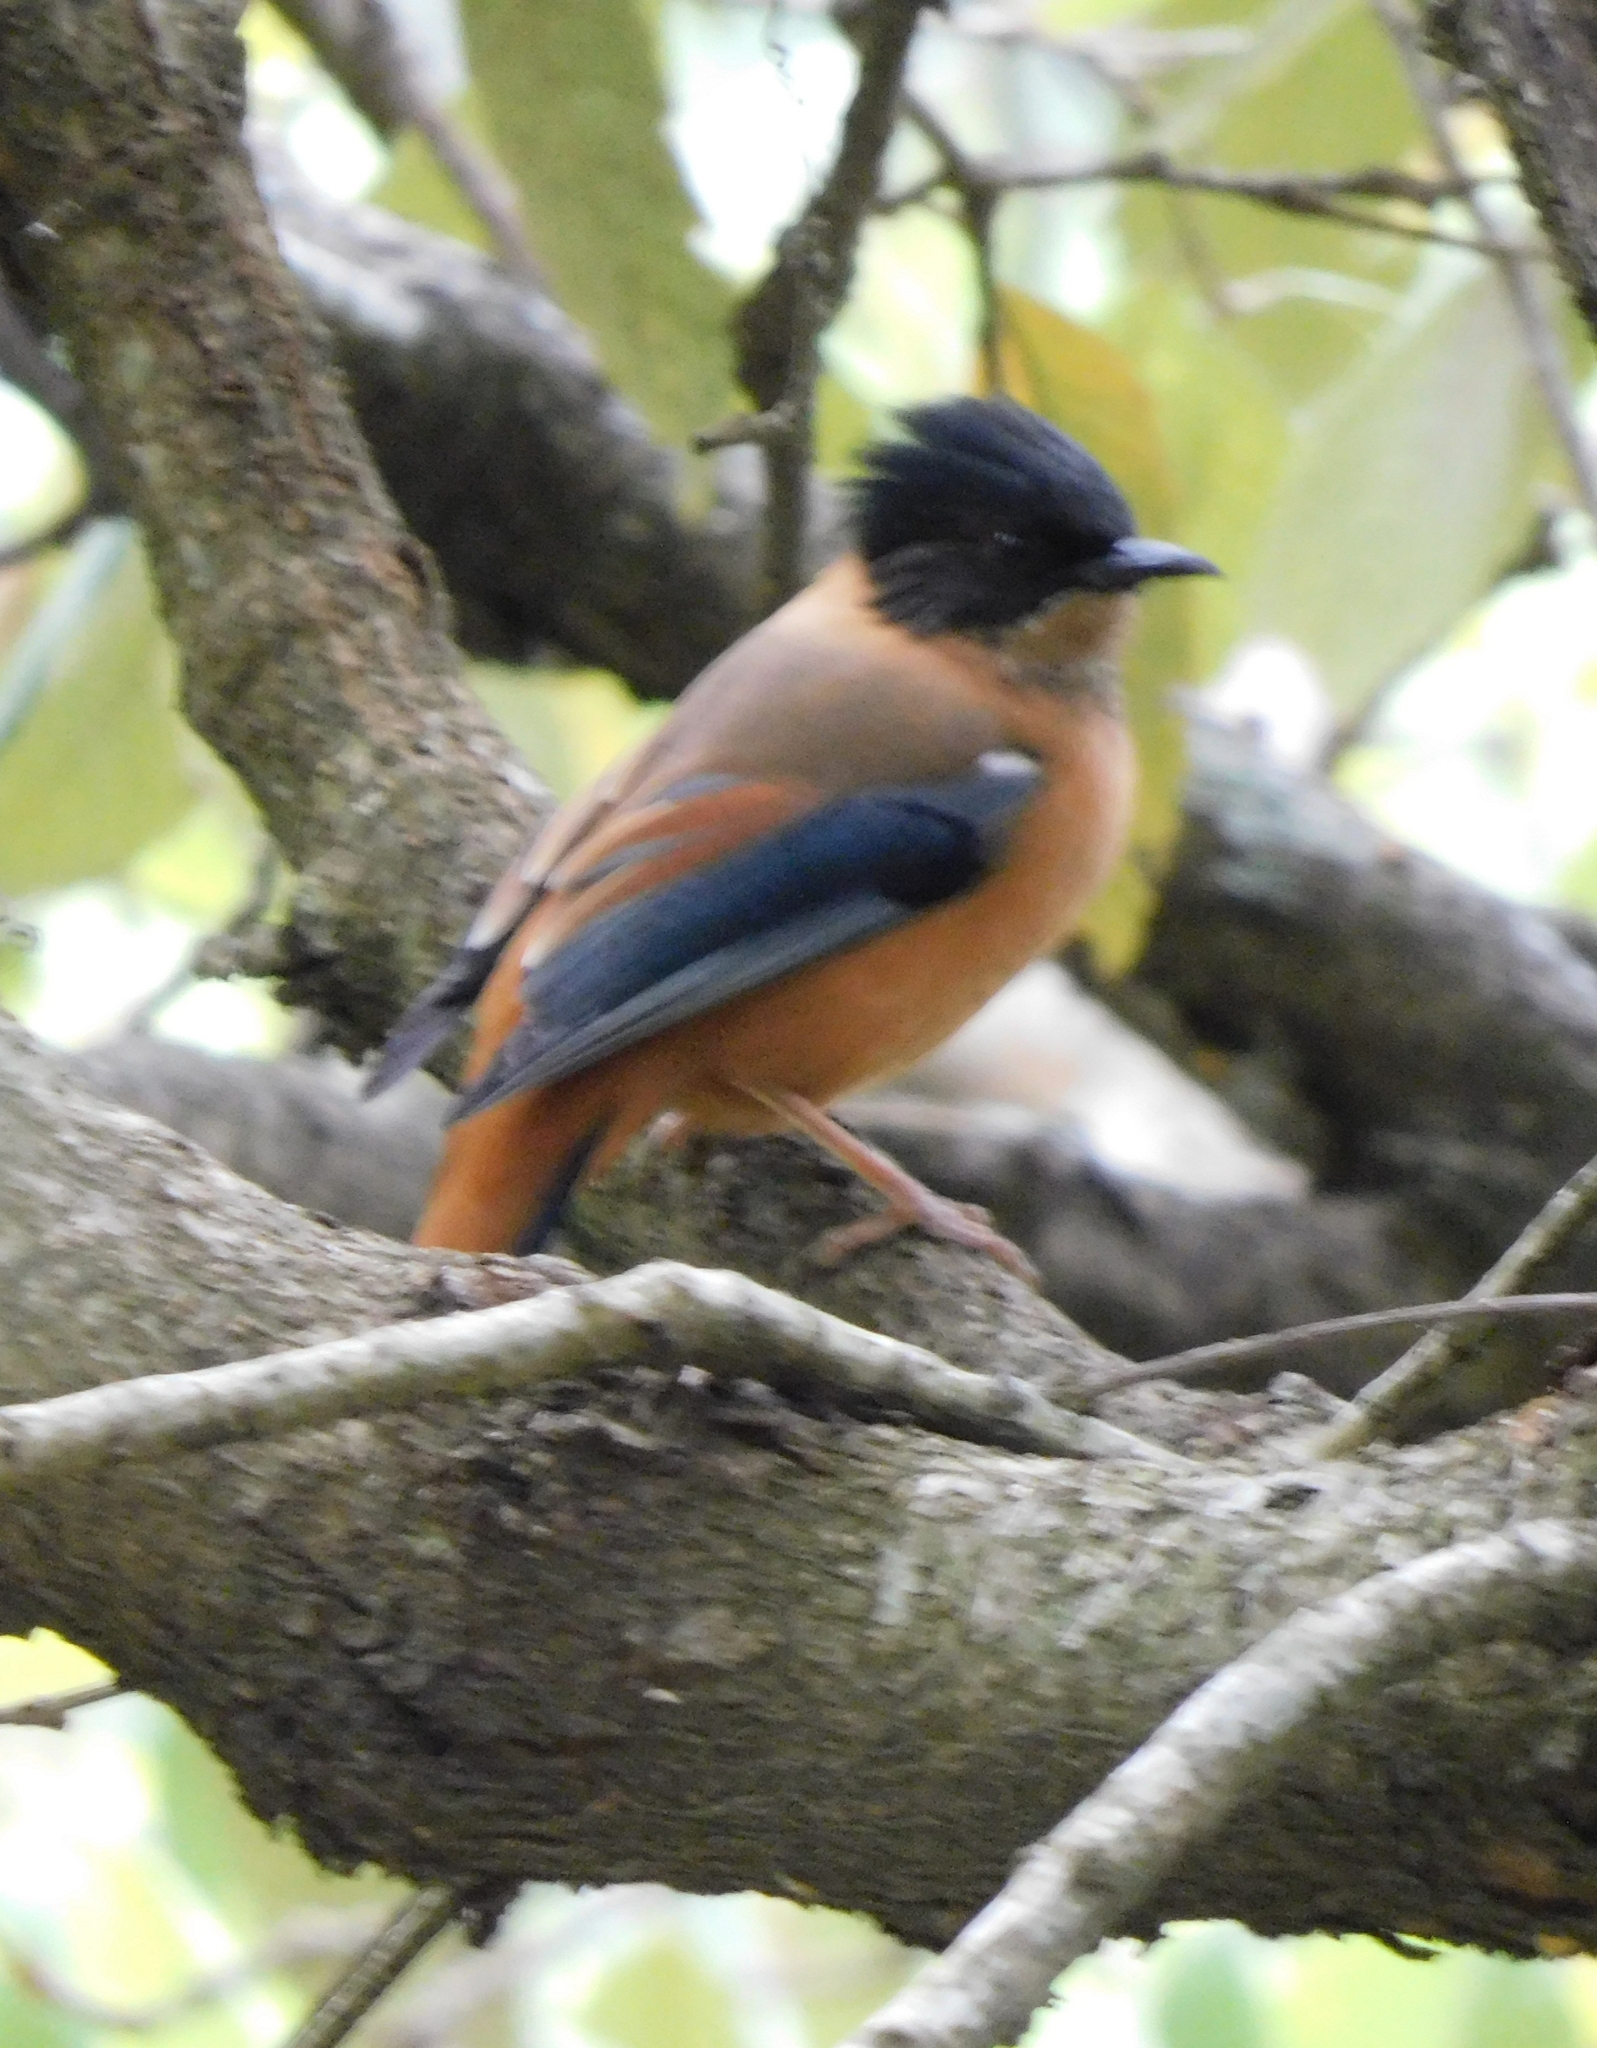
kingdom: Animalia
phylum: Chordata
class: Aves
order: Passeriformes
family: Leiothrichidae
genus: Heterophasia
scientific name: Heterophasia capistrata
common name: Rufous sibia
